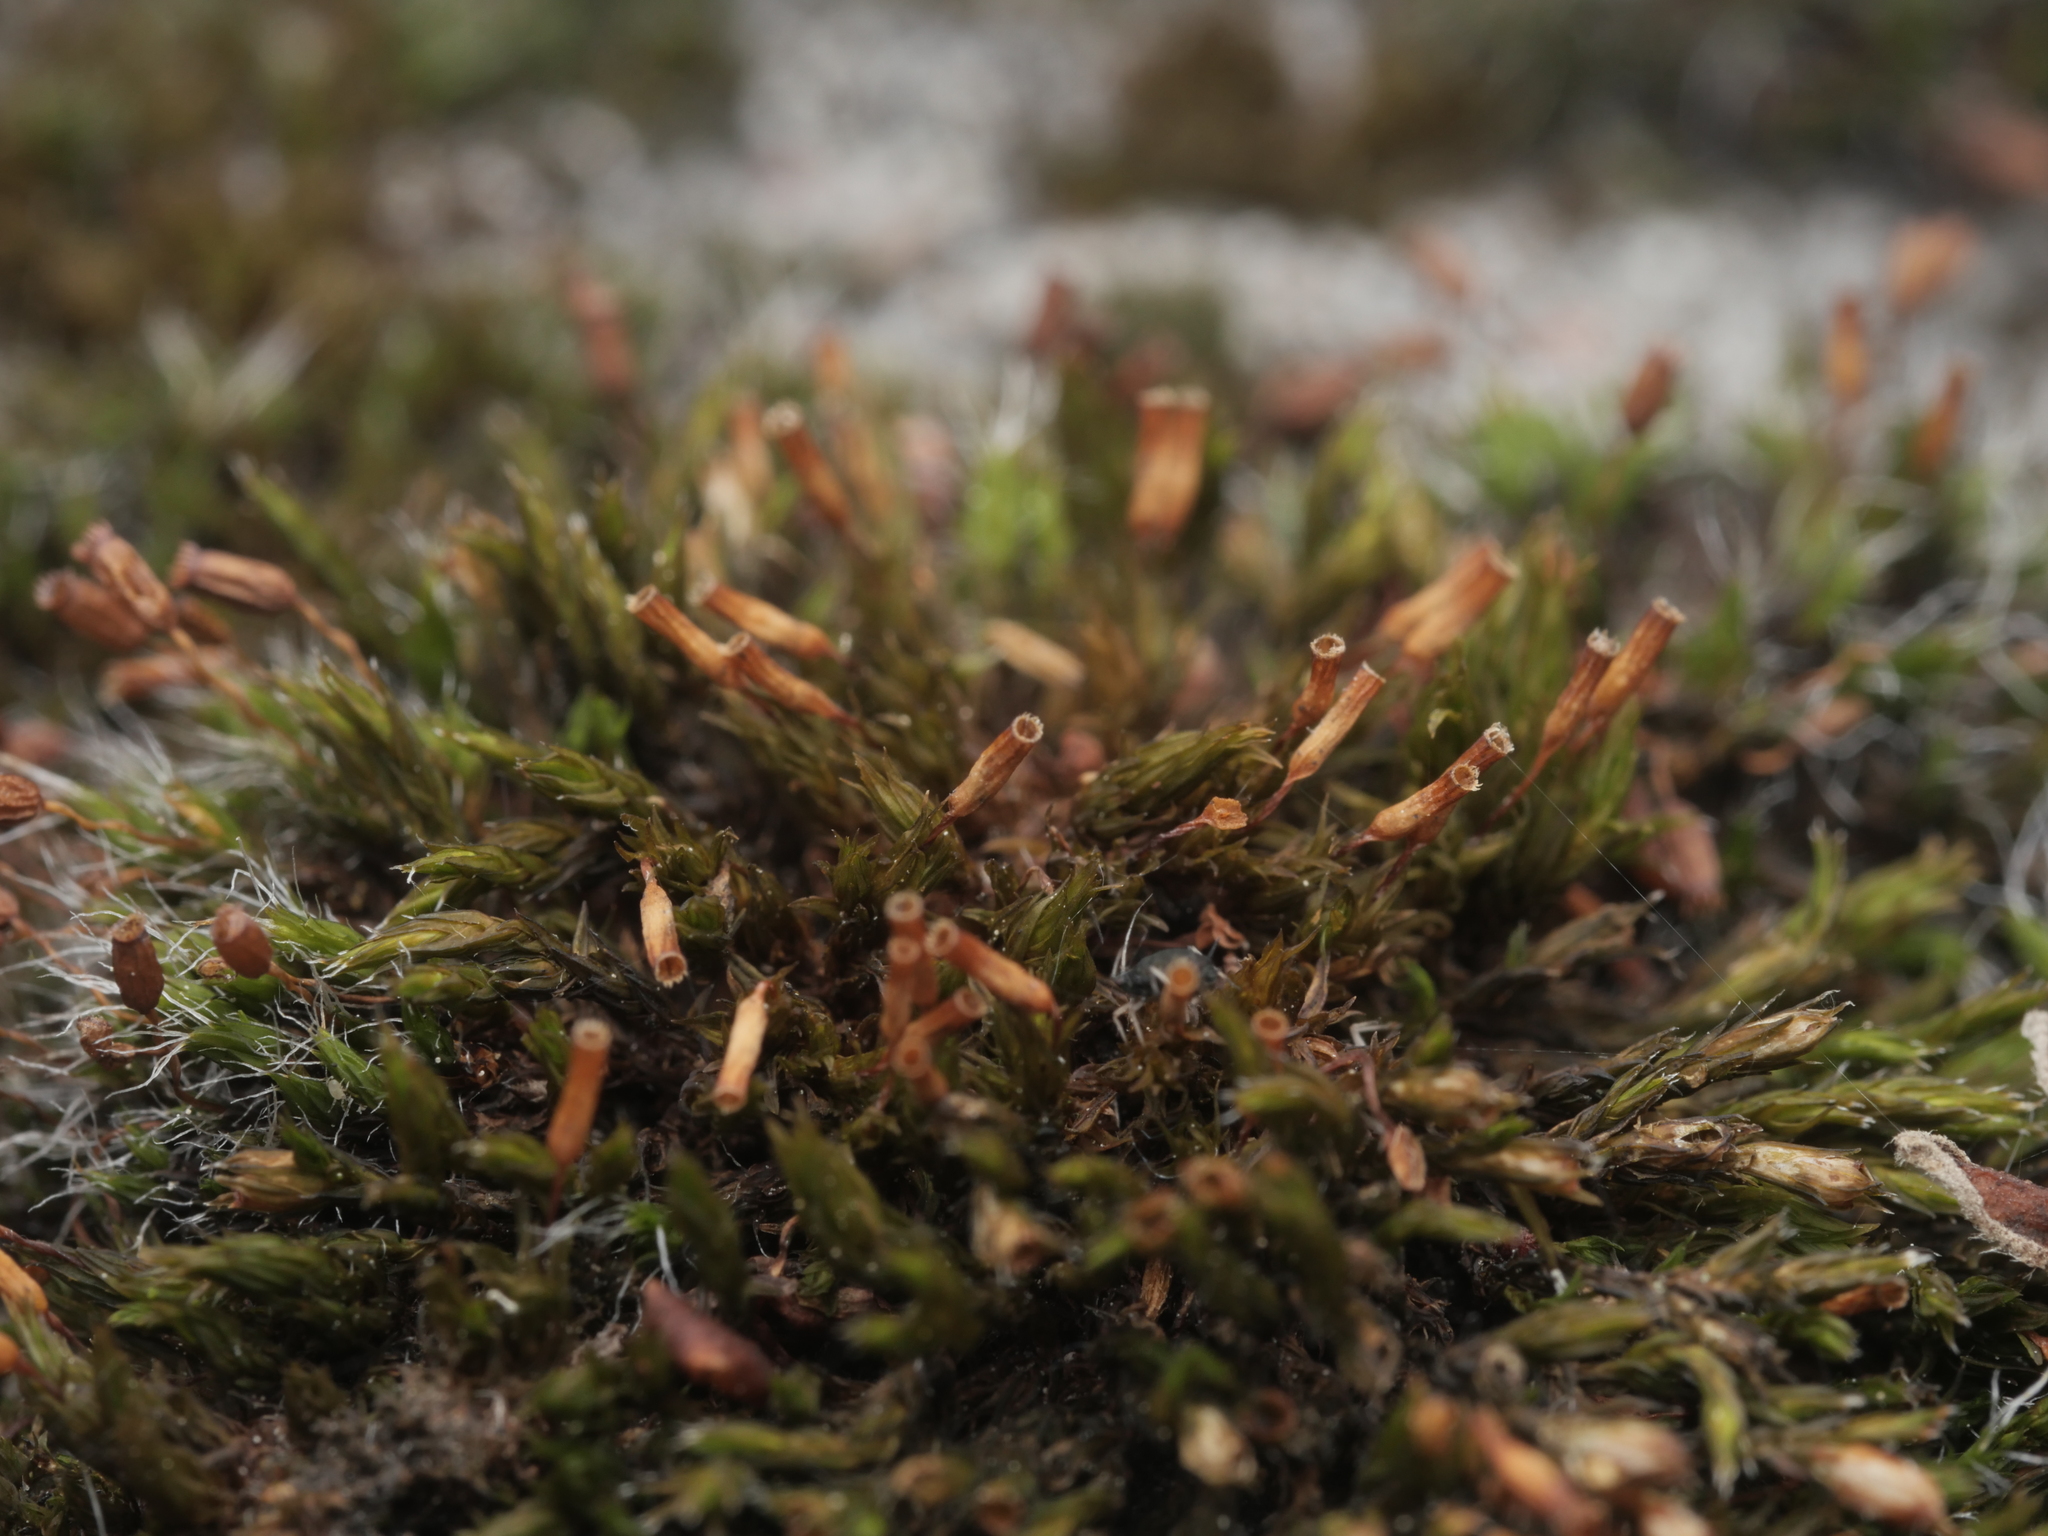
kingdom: Plantae
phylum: Bryophyta
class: Bryopsida
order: Orthotrichales
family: Orthotrichaceae
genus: Orthotrichum
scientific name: Orthotrichum anomalum
